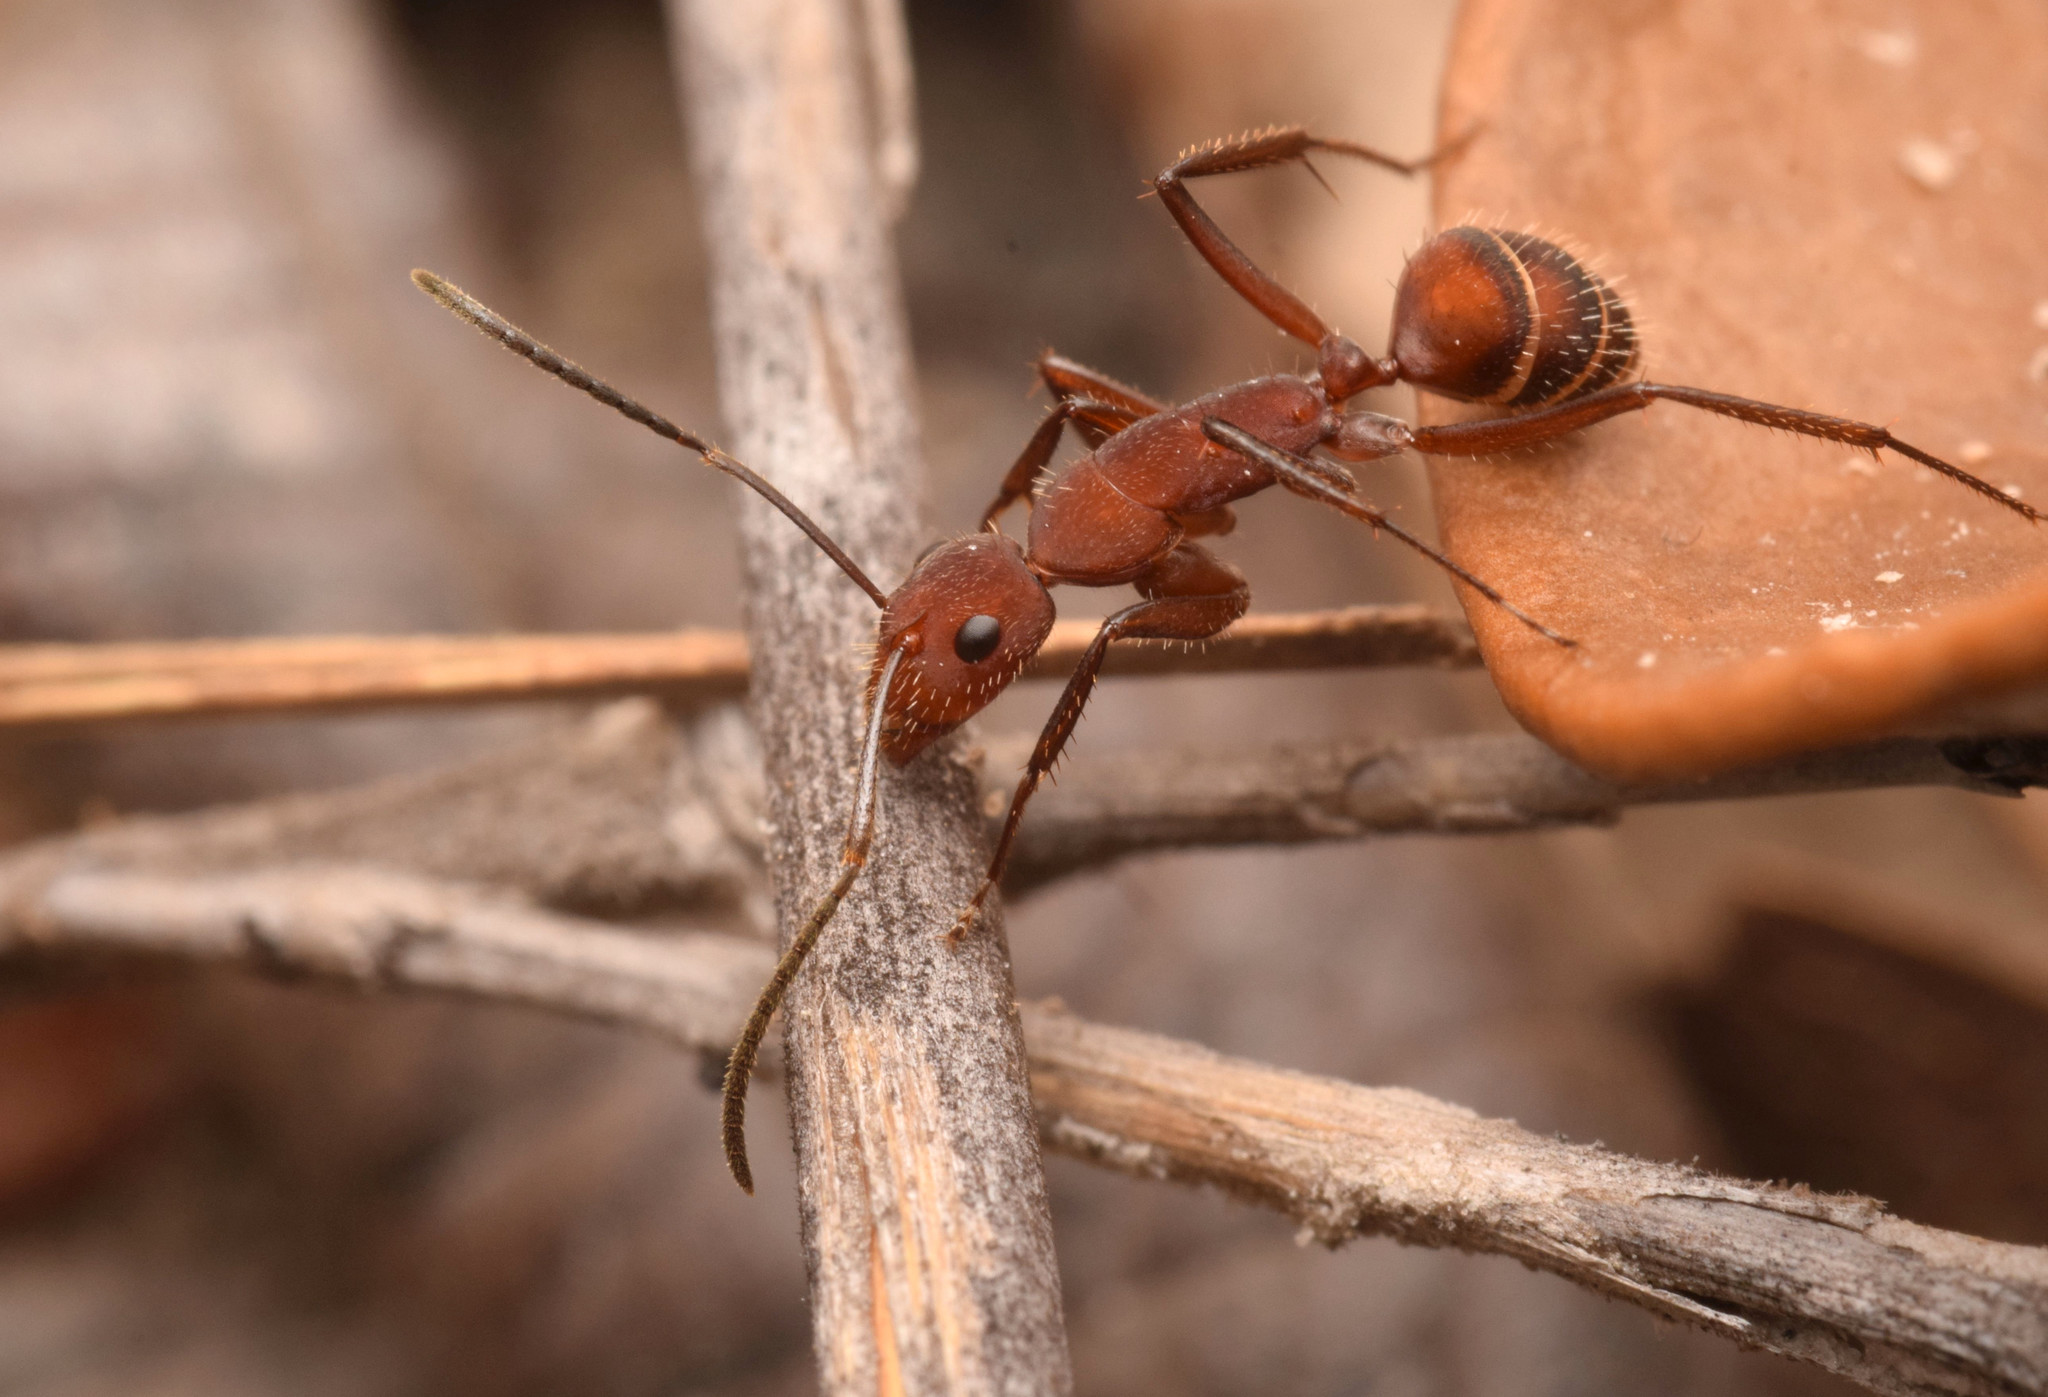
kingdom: Animalia
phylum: Arthropoda
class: Insecta
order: Hymenoptera
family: Formicidae
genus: Camponotus
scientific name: Camponotus leydigi
